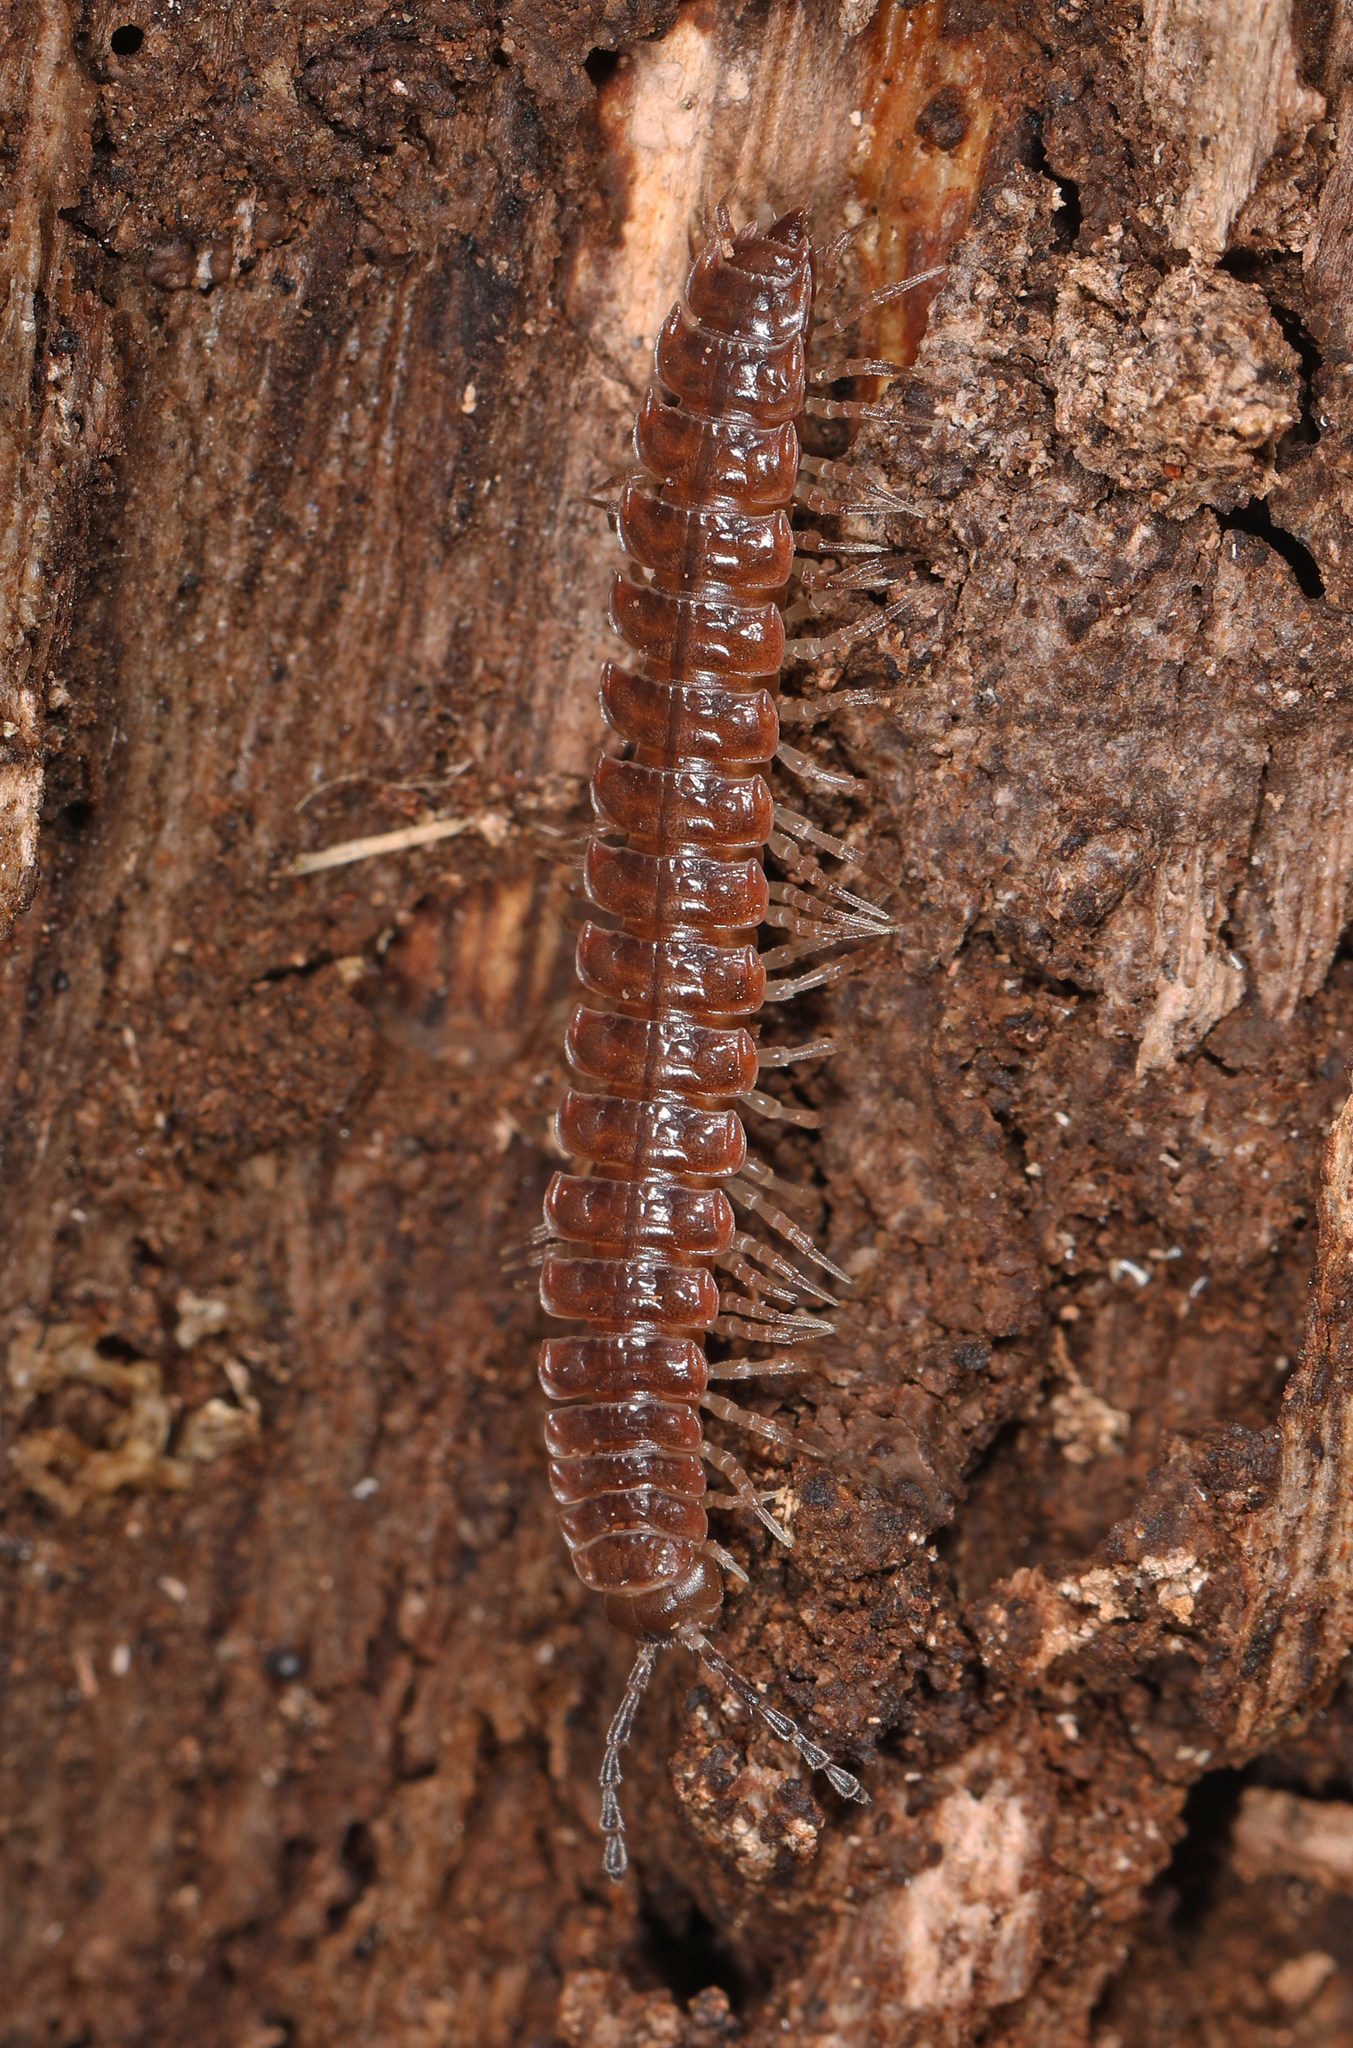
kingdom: Animalia
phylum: Arthropoda
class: Diplopoda
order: Polydesmida
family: Polydesmidae
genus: Pseudopolydesmus
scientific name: Pseudopolydesmus serratus
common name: Common pink flat-back millipede
